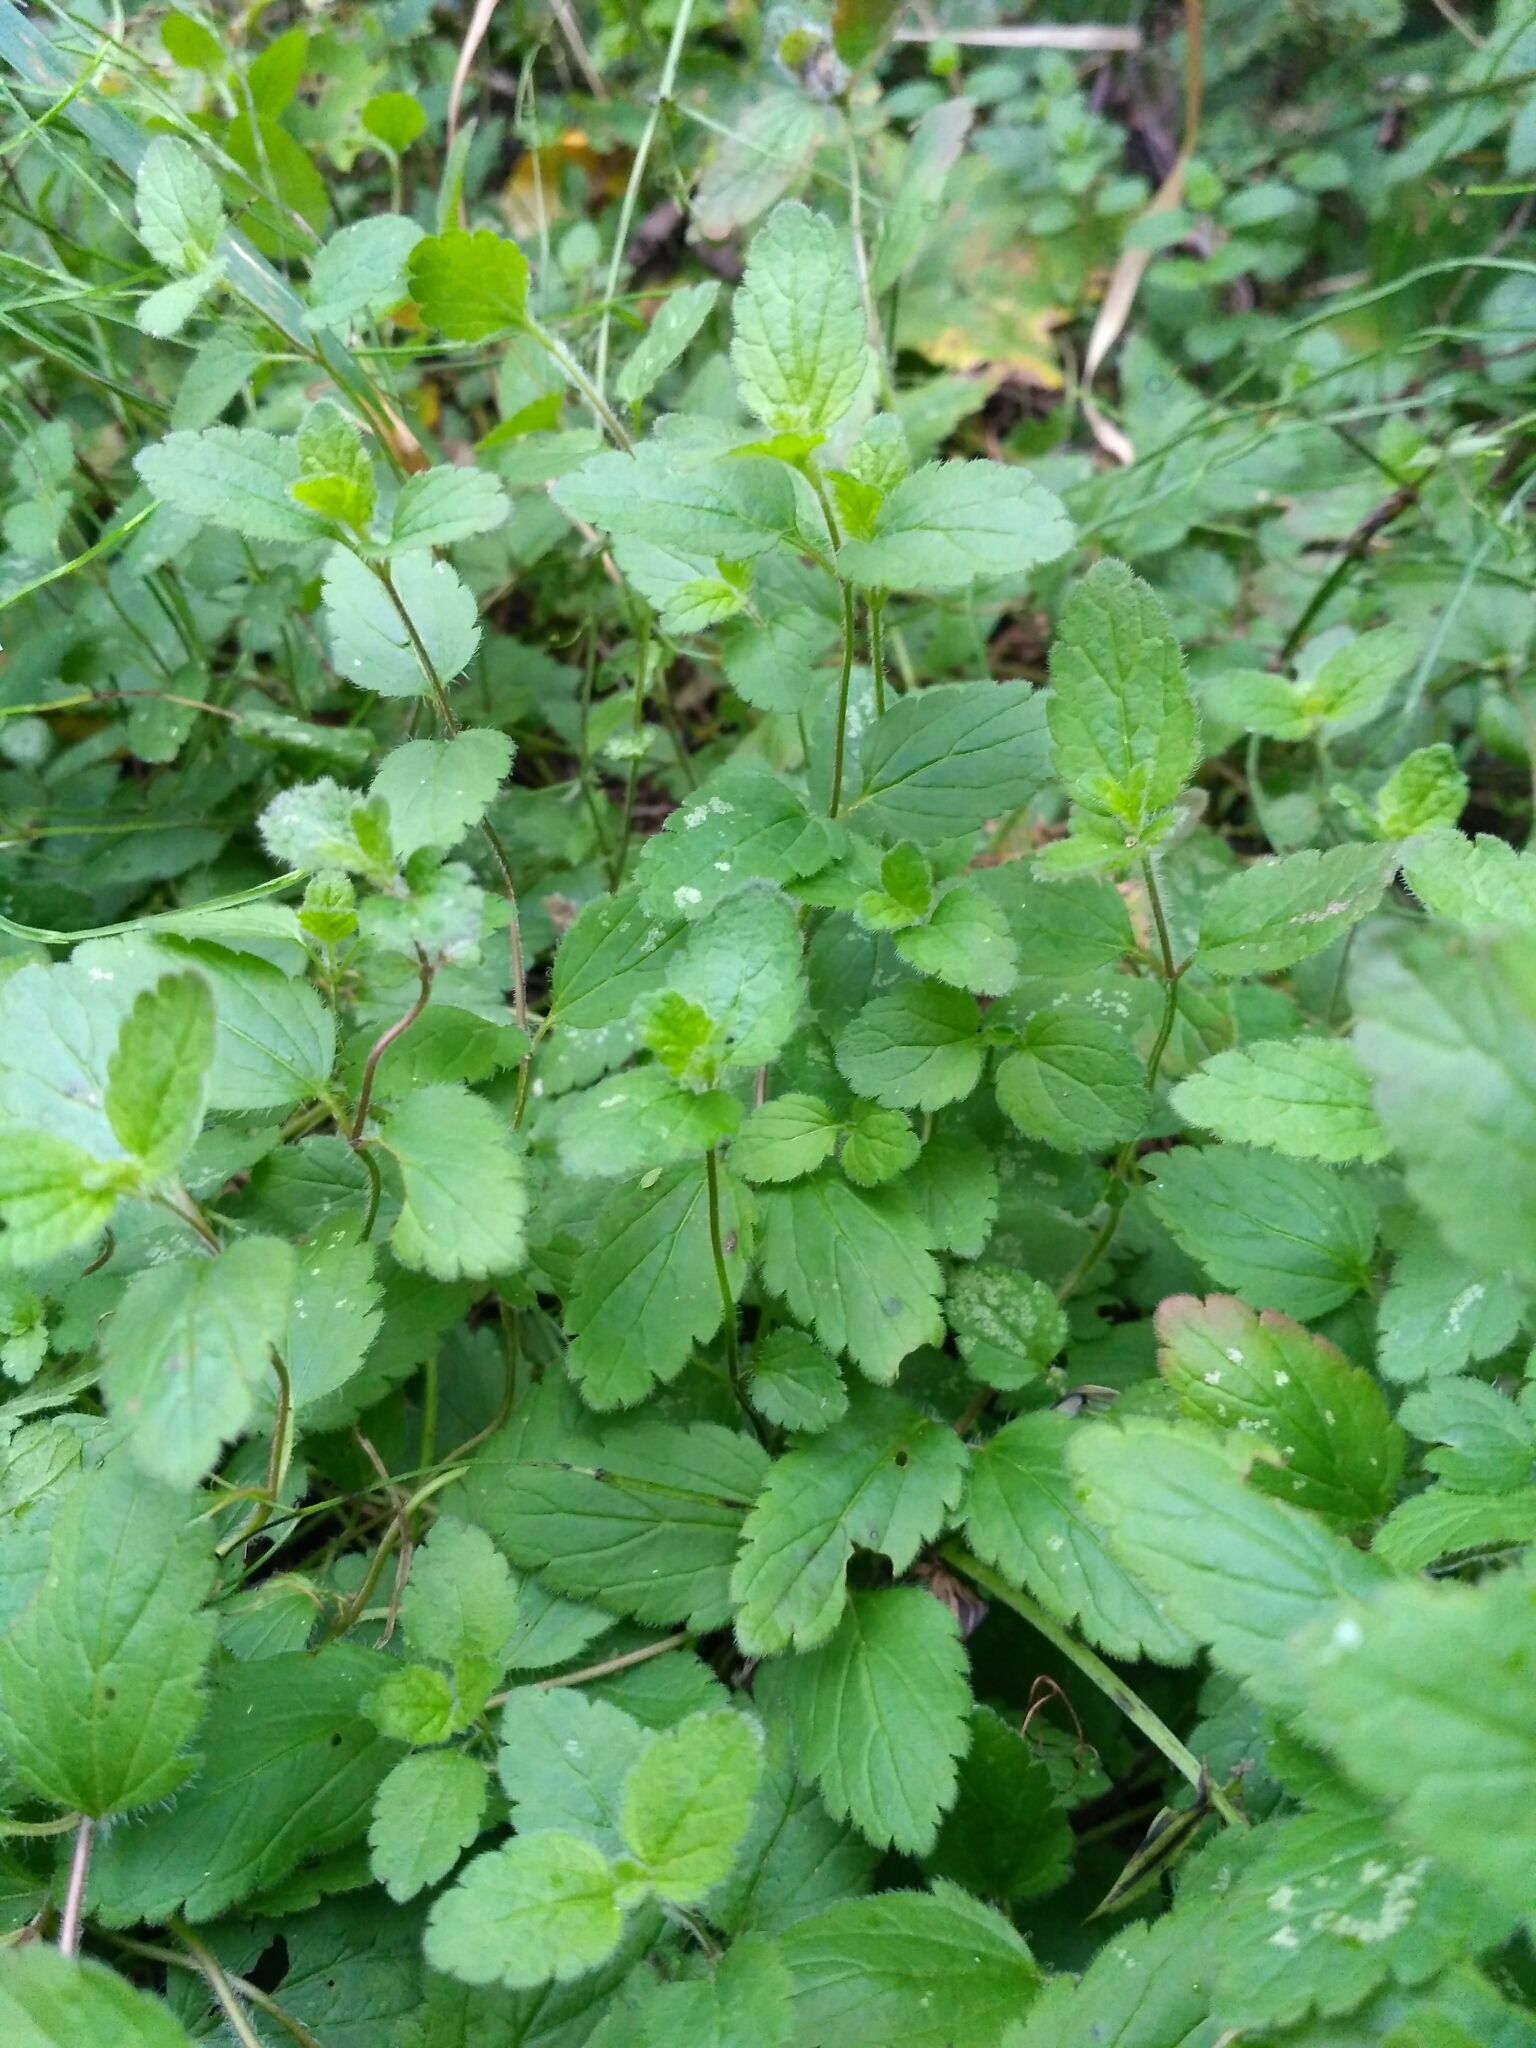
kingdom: Plantae
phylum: Tracheophyta
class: Magnoliopsida
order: Lamiales
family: Plantaginaceae
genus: Veronica
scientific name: Veronica chamaedrys
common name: Germander speedwell
